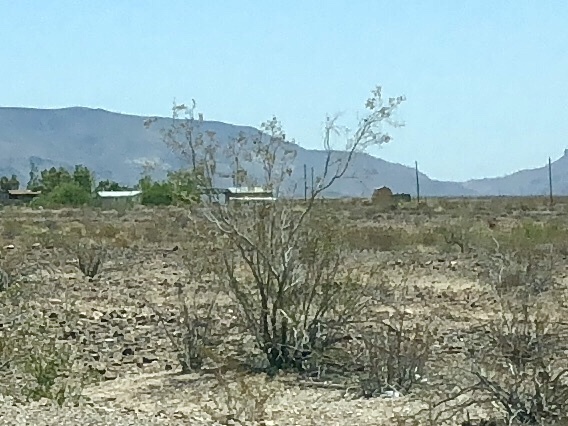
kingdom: Plantae
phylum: Tracheophyta
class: Magnoliopsida
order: Zygophyllales
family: Zygophyllaceae
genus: Larrea
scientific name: Larrea tridentata
